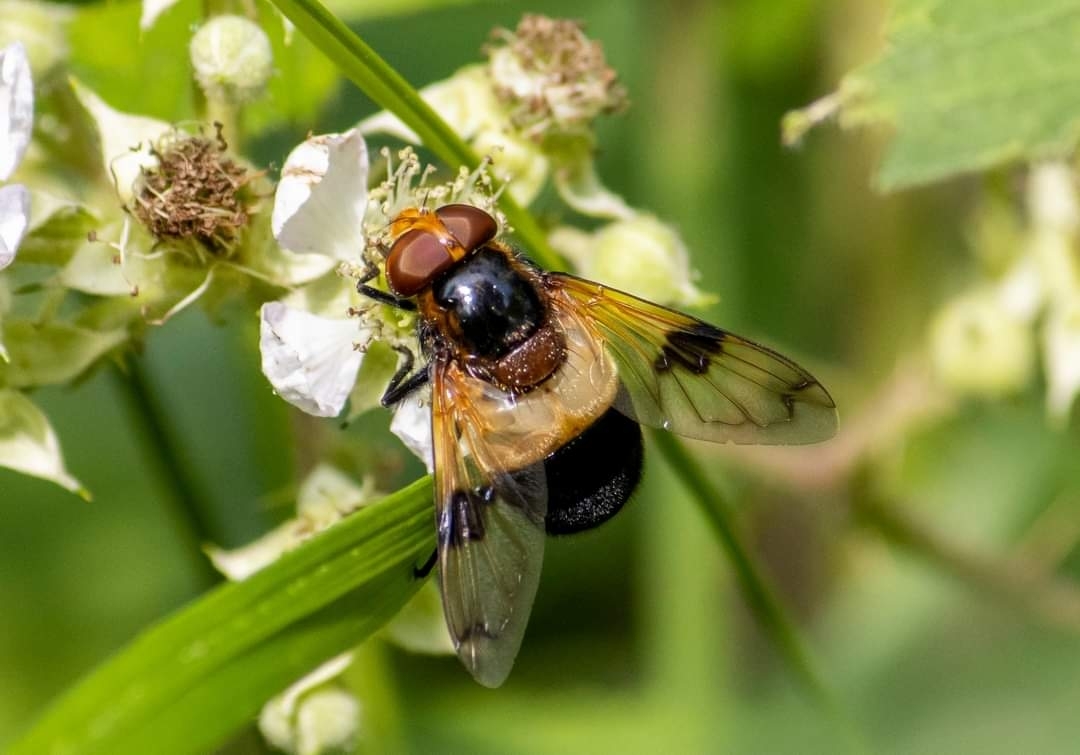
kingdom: Animalia
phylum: Arthropoda
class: Insecta
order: Diptera
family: Syrphidae
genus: Volucella
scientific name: Volucella pellucens
